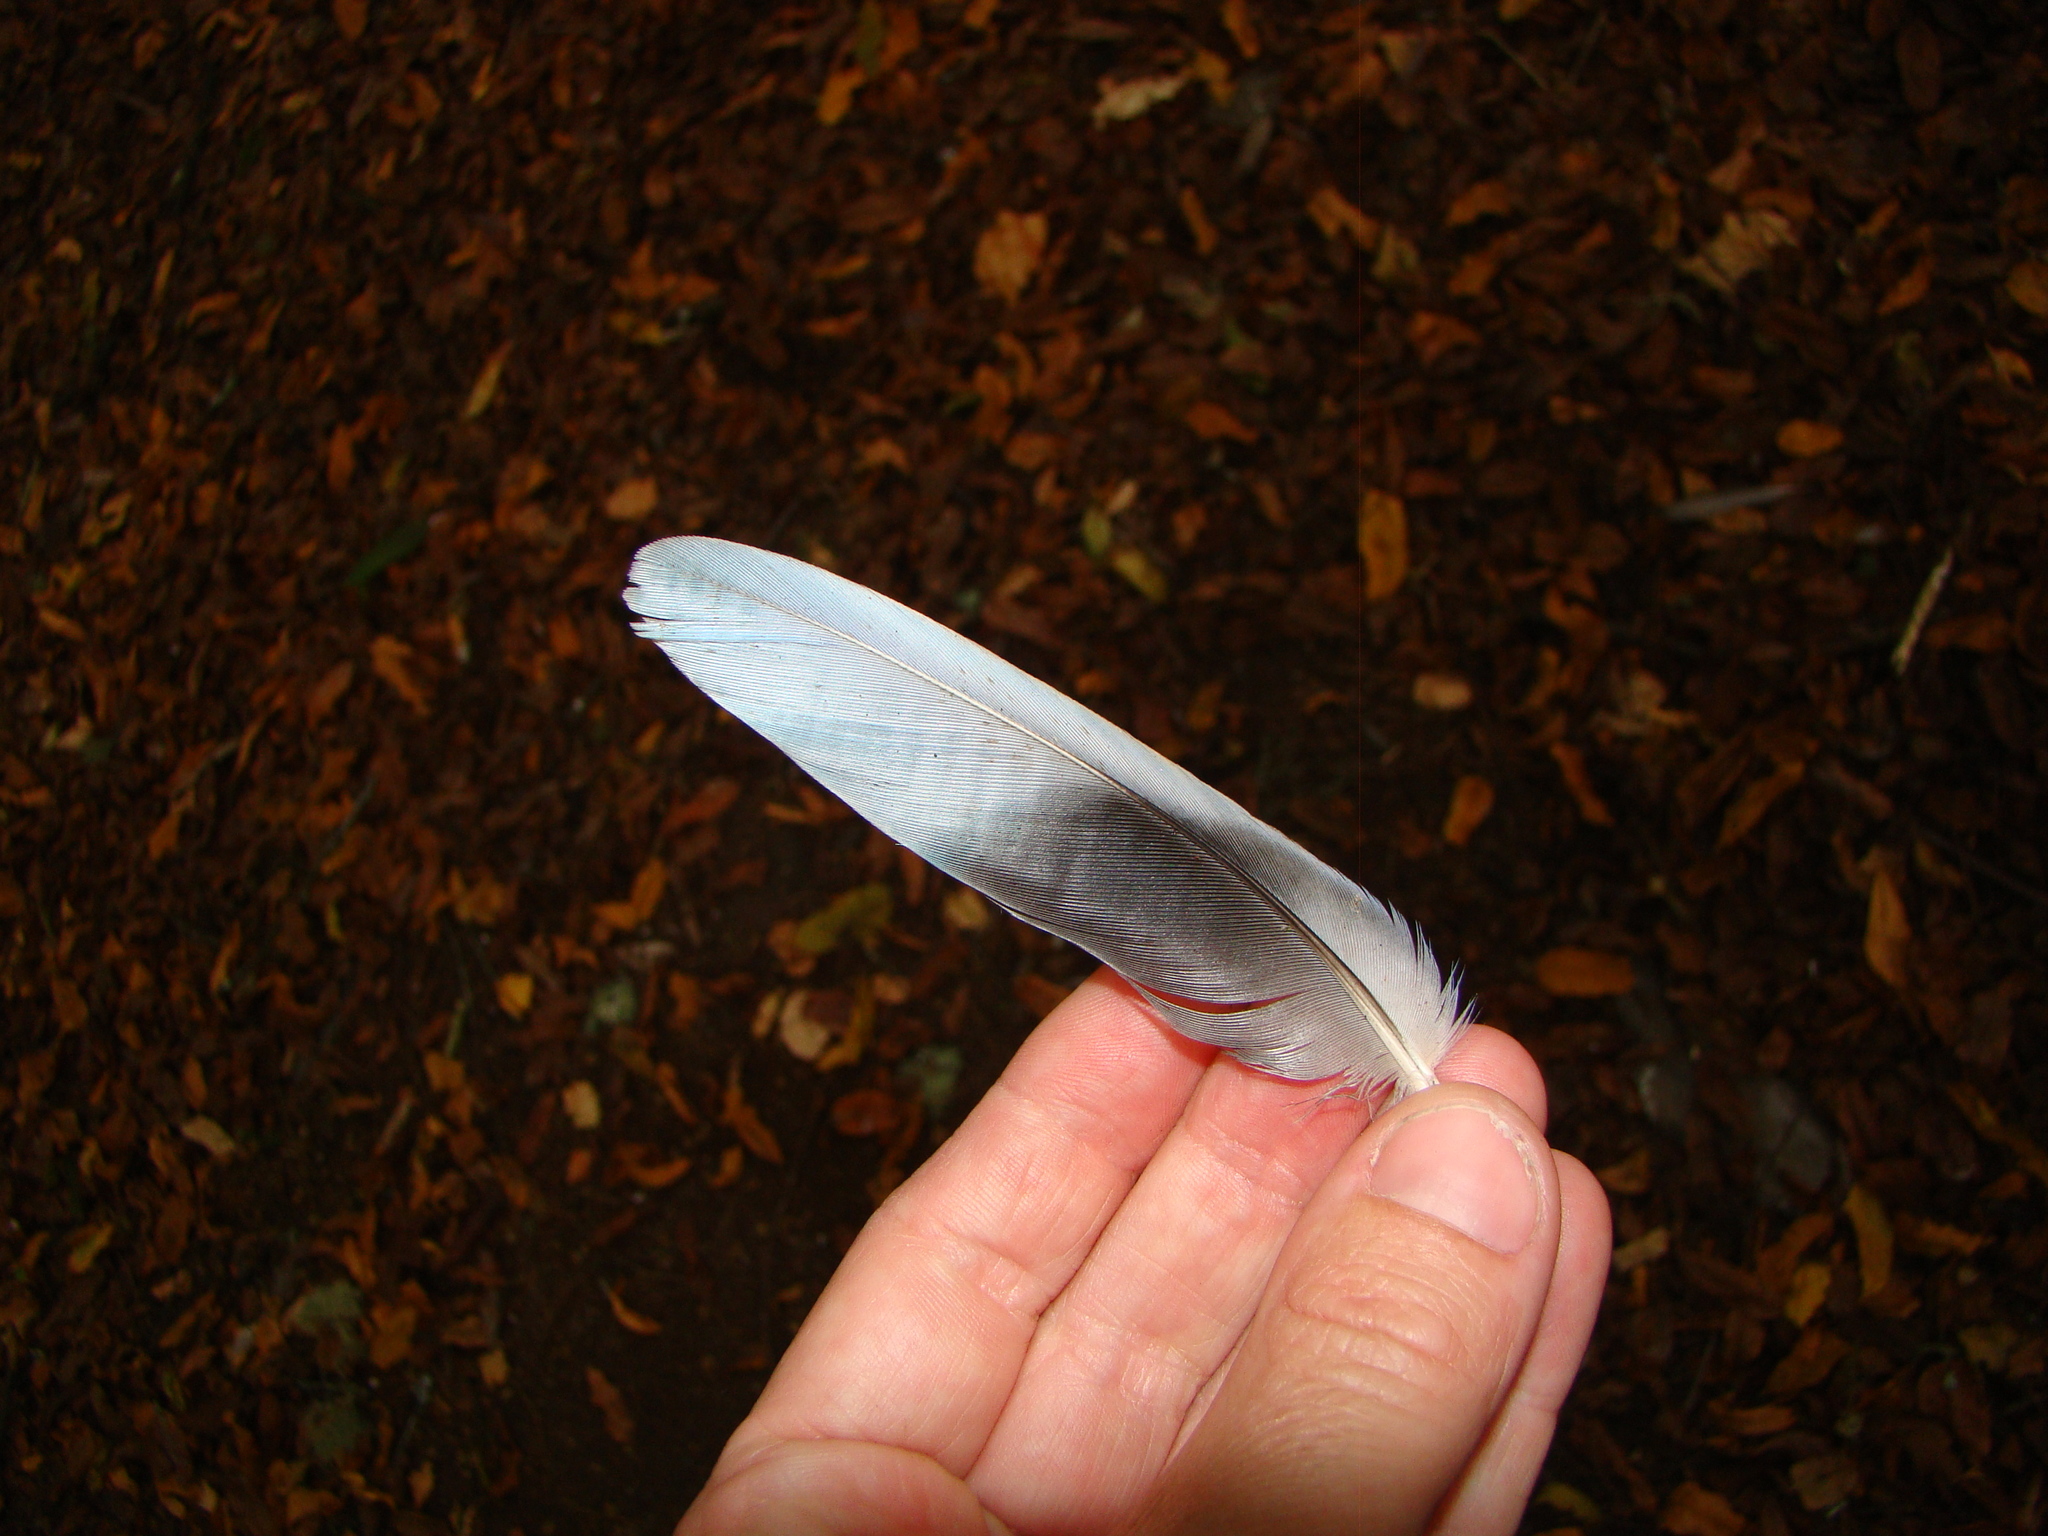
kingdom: Animalia
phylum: Chordata
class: Aves
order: Psittaciformes
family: Psittacidae
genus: Platycercus
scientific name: Platycercus eximius
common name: Eastern rosella
